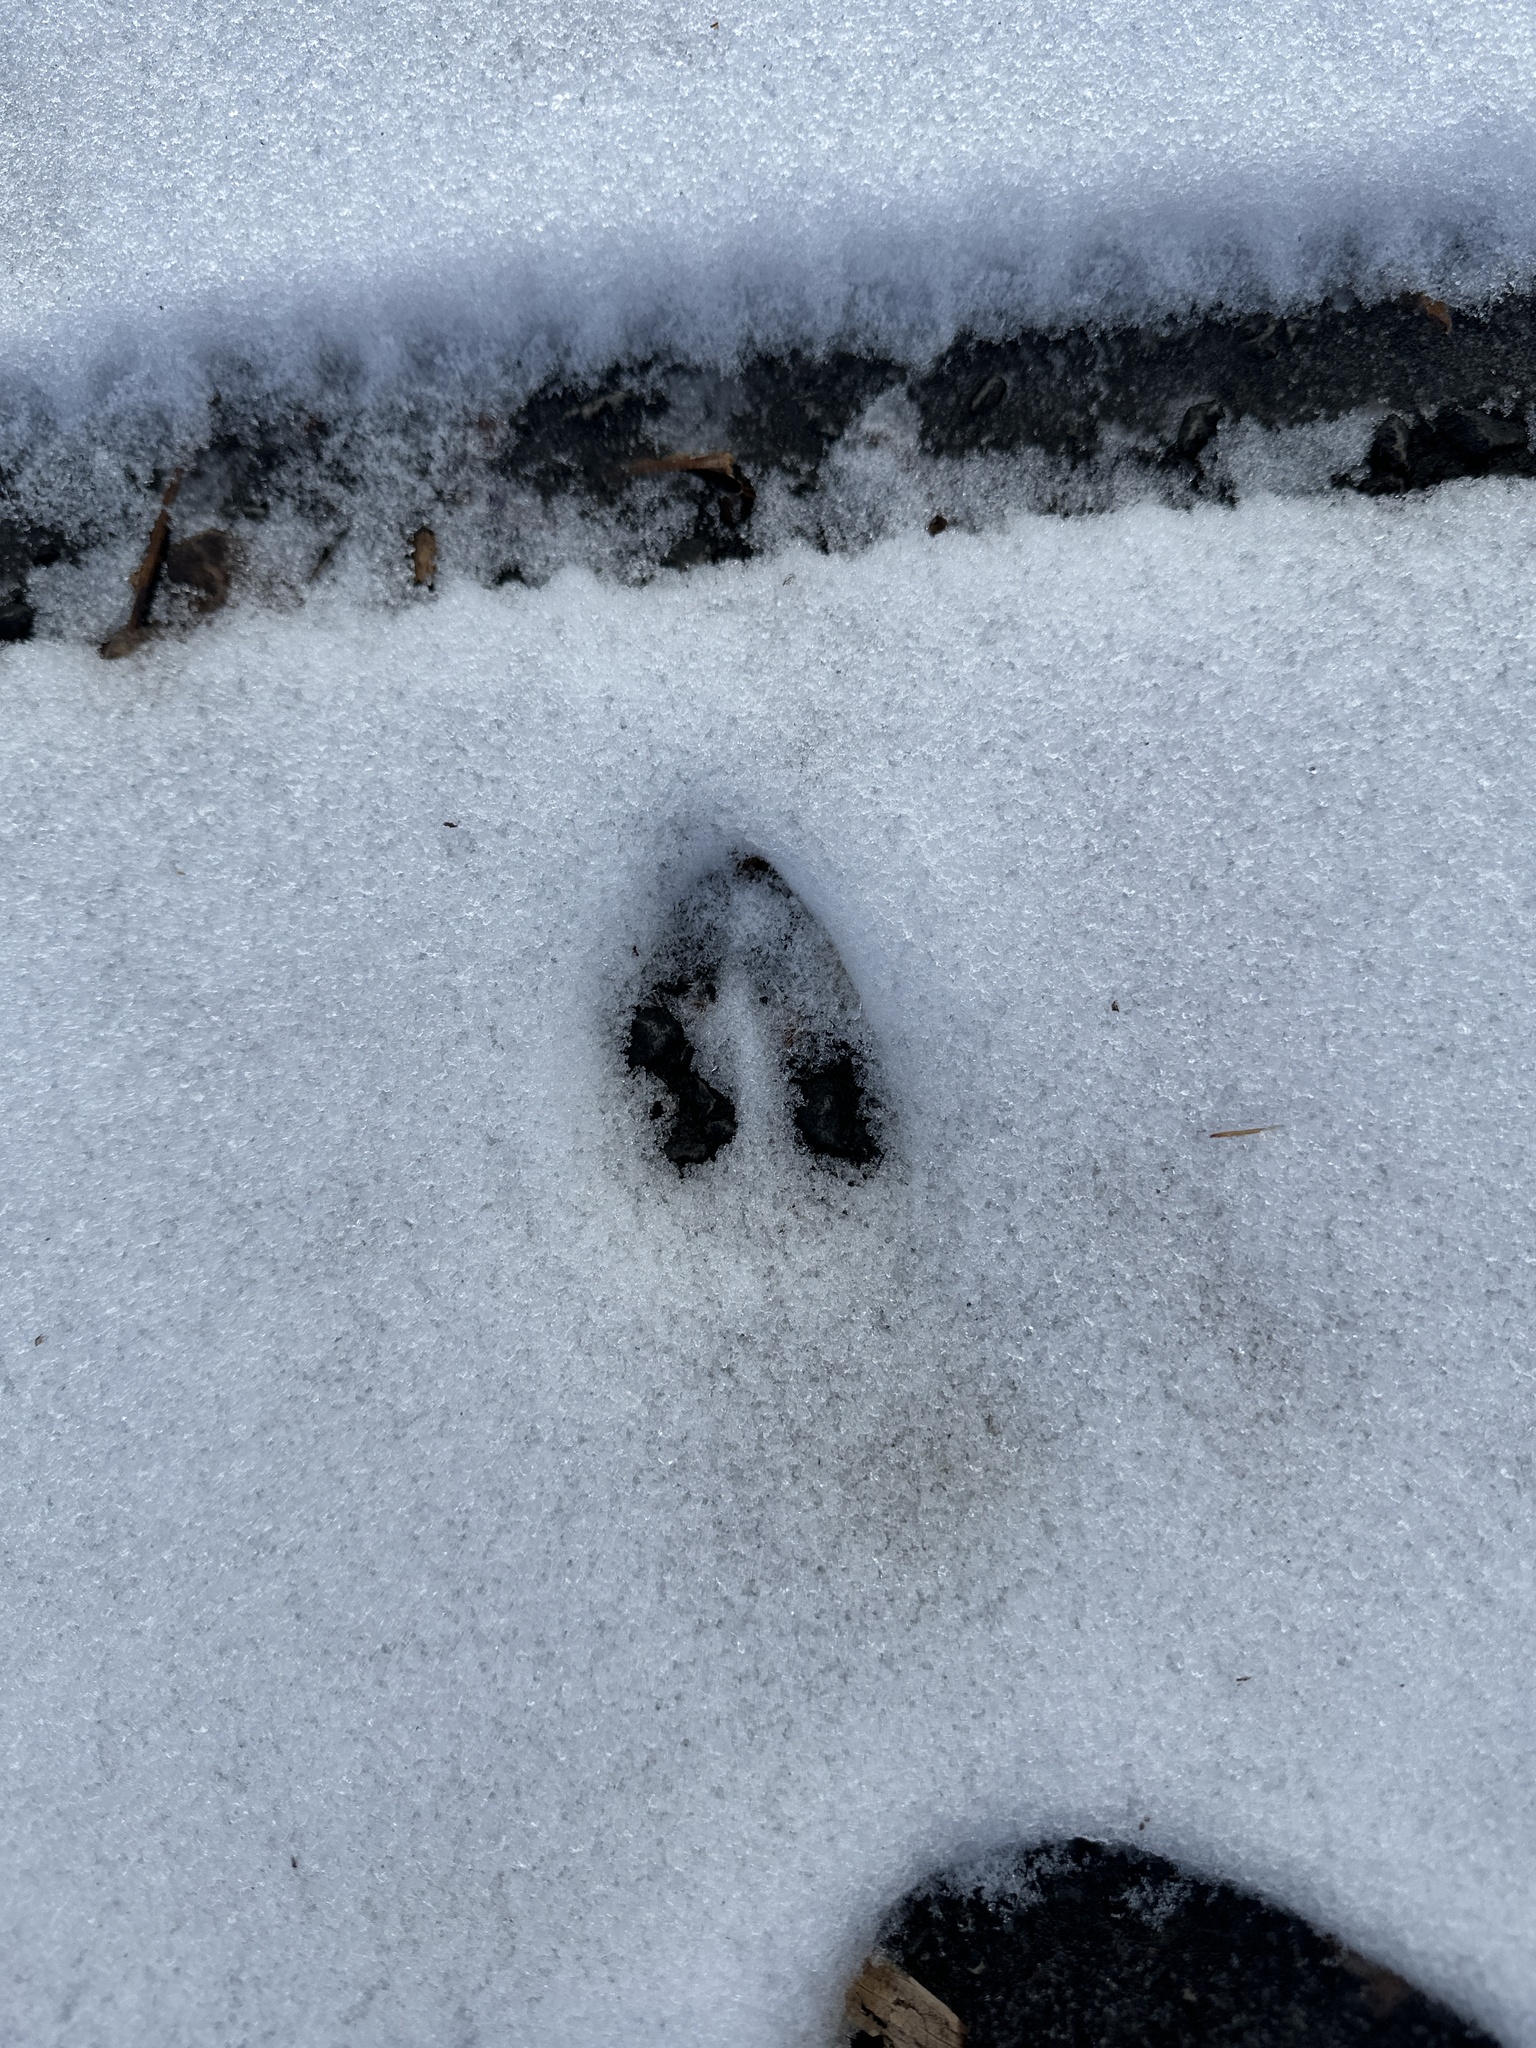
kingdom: Animalia
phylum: Chordata
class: Mammalia
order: Artiodactyla
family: Cervidae
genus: Odocoileus
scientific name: Odocoileus virginianus
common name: White-tailed deer
